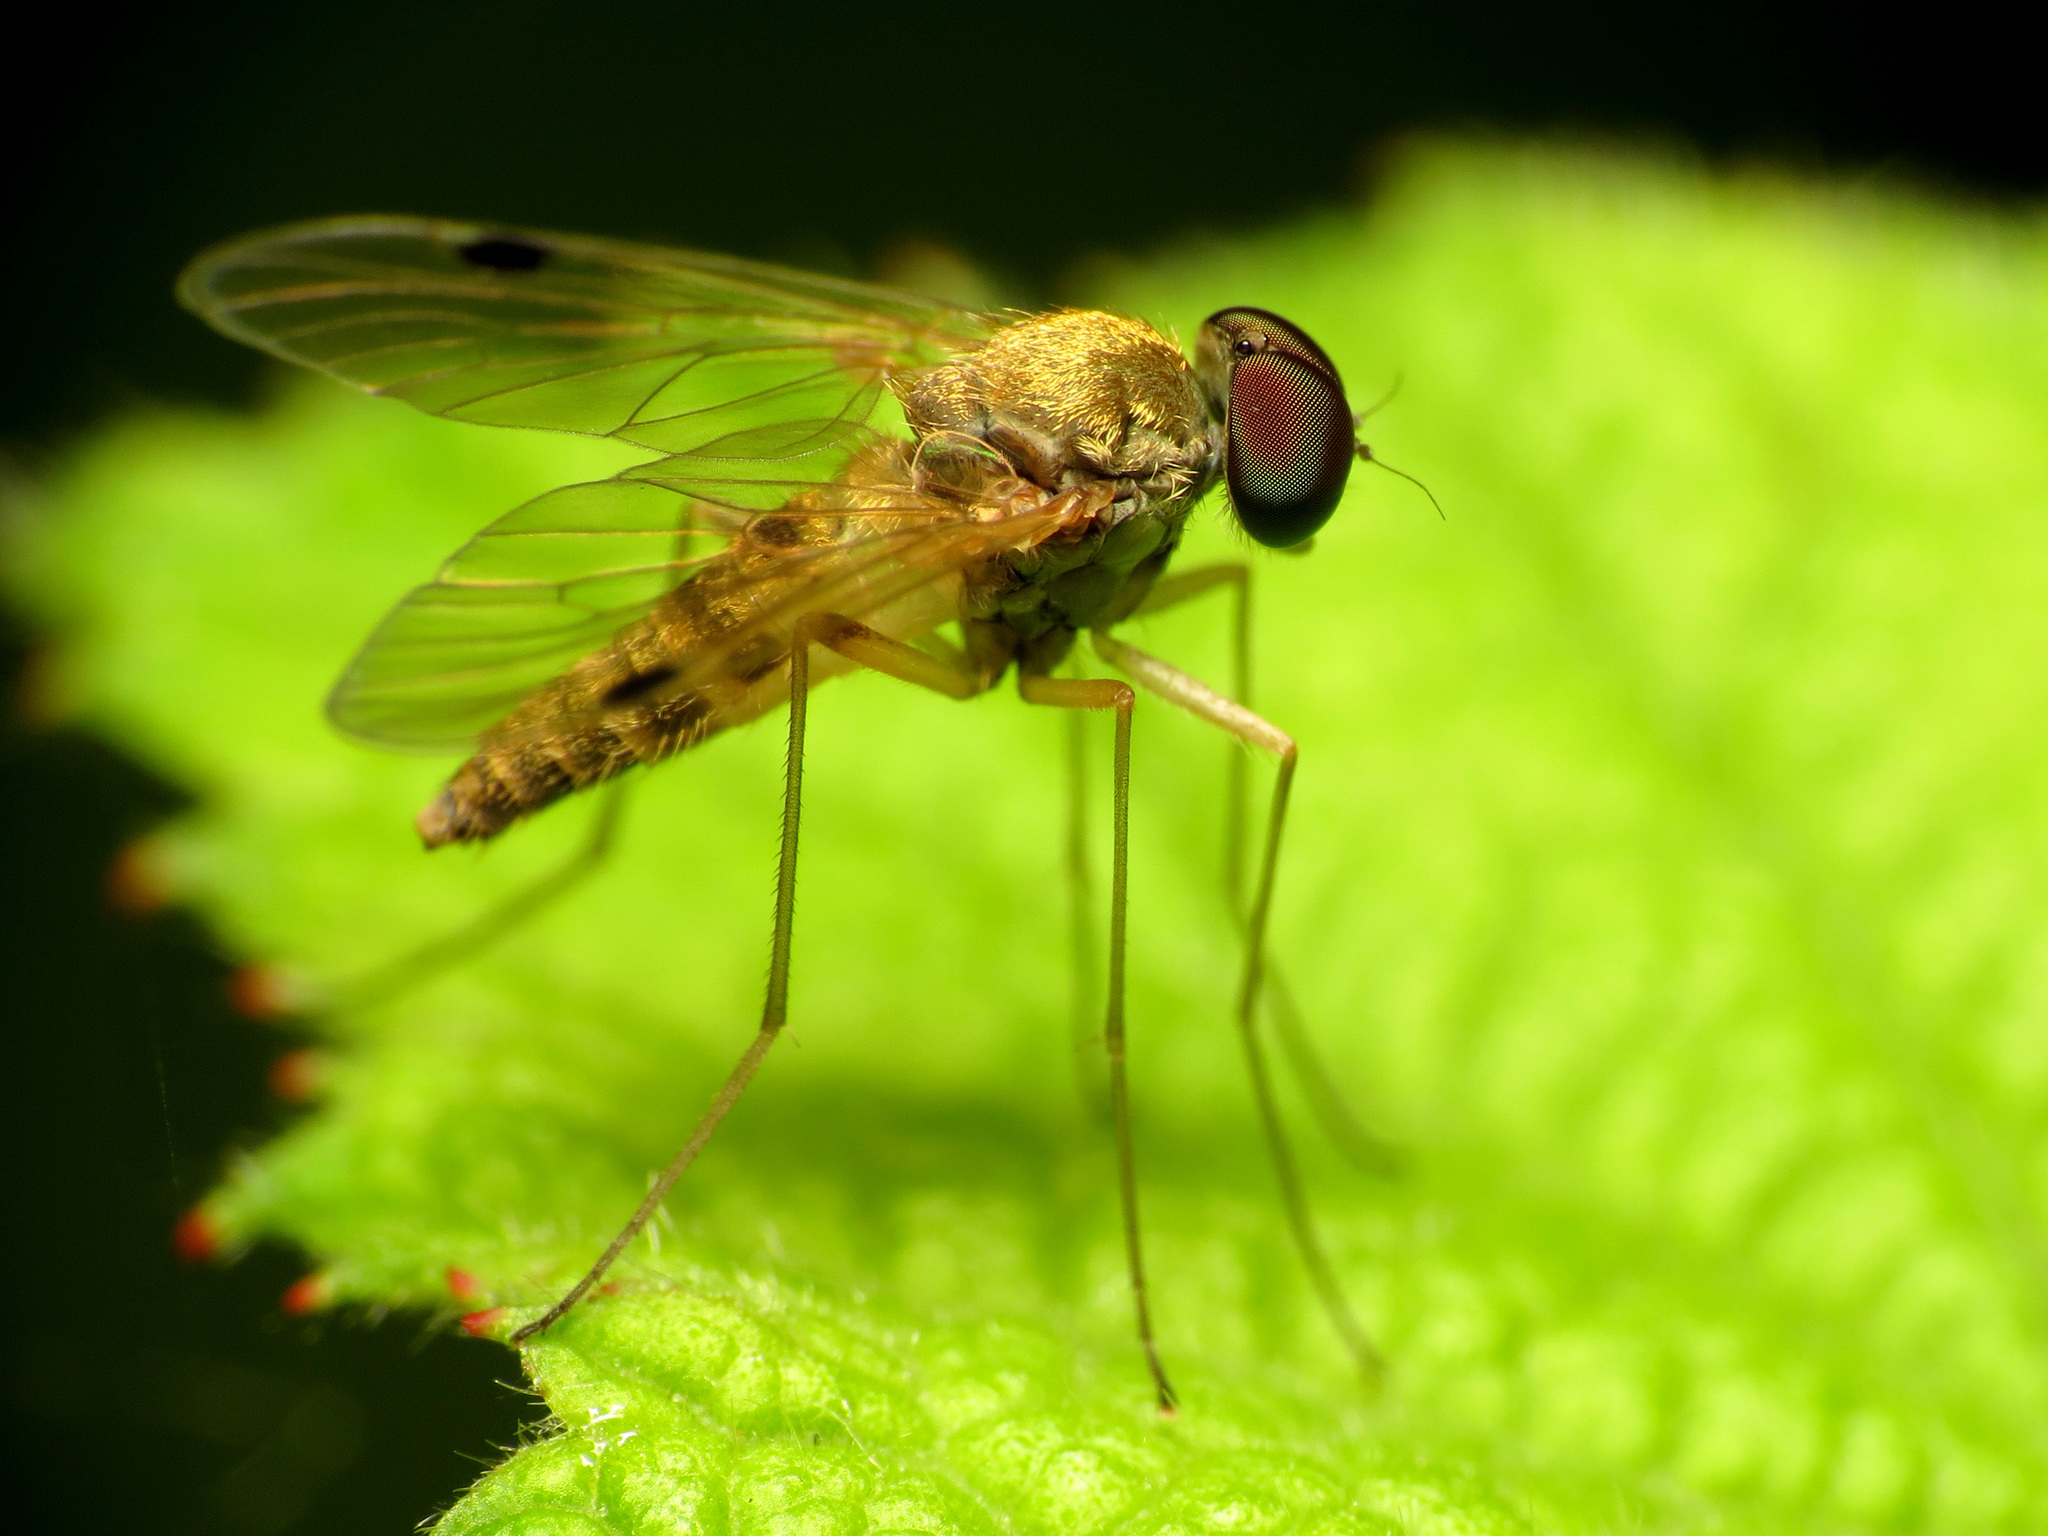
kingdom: Animalia
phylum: Arthropoda
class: Insecta
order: Diptera
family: Rhagionidae
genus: Chrysopilus
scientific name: Chrysopilus modestus
